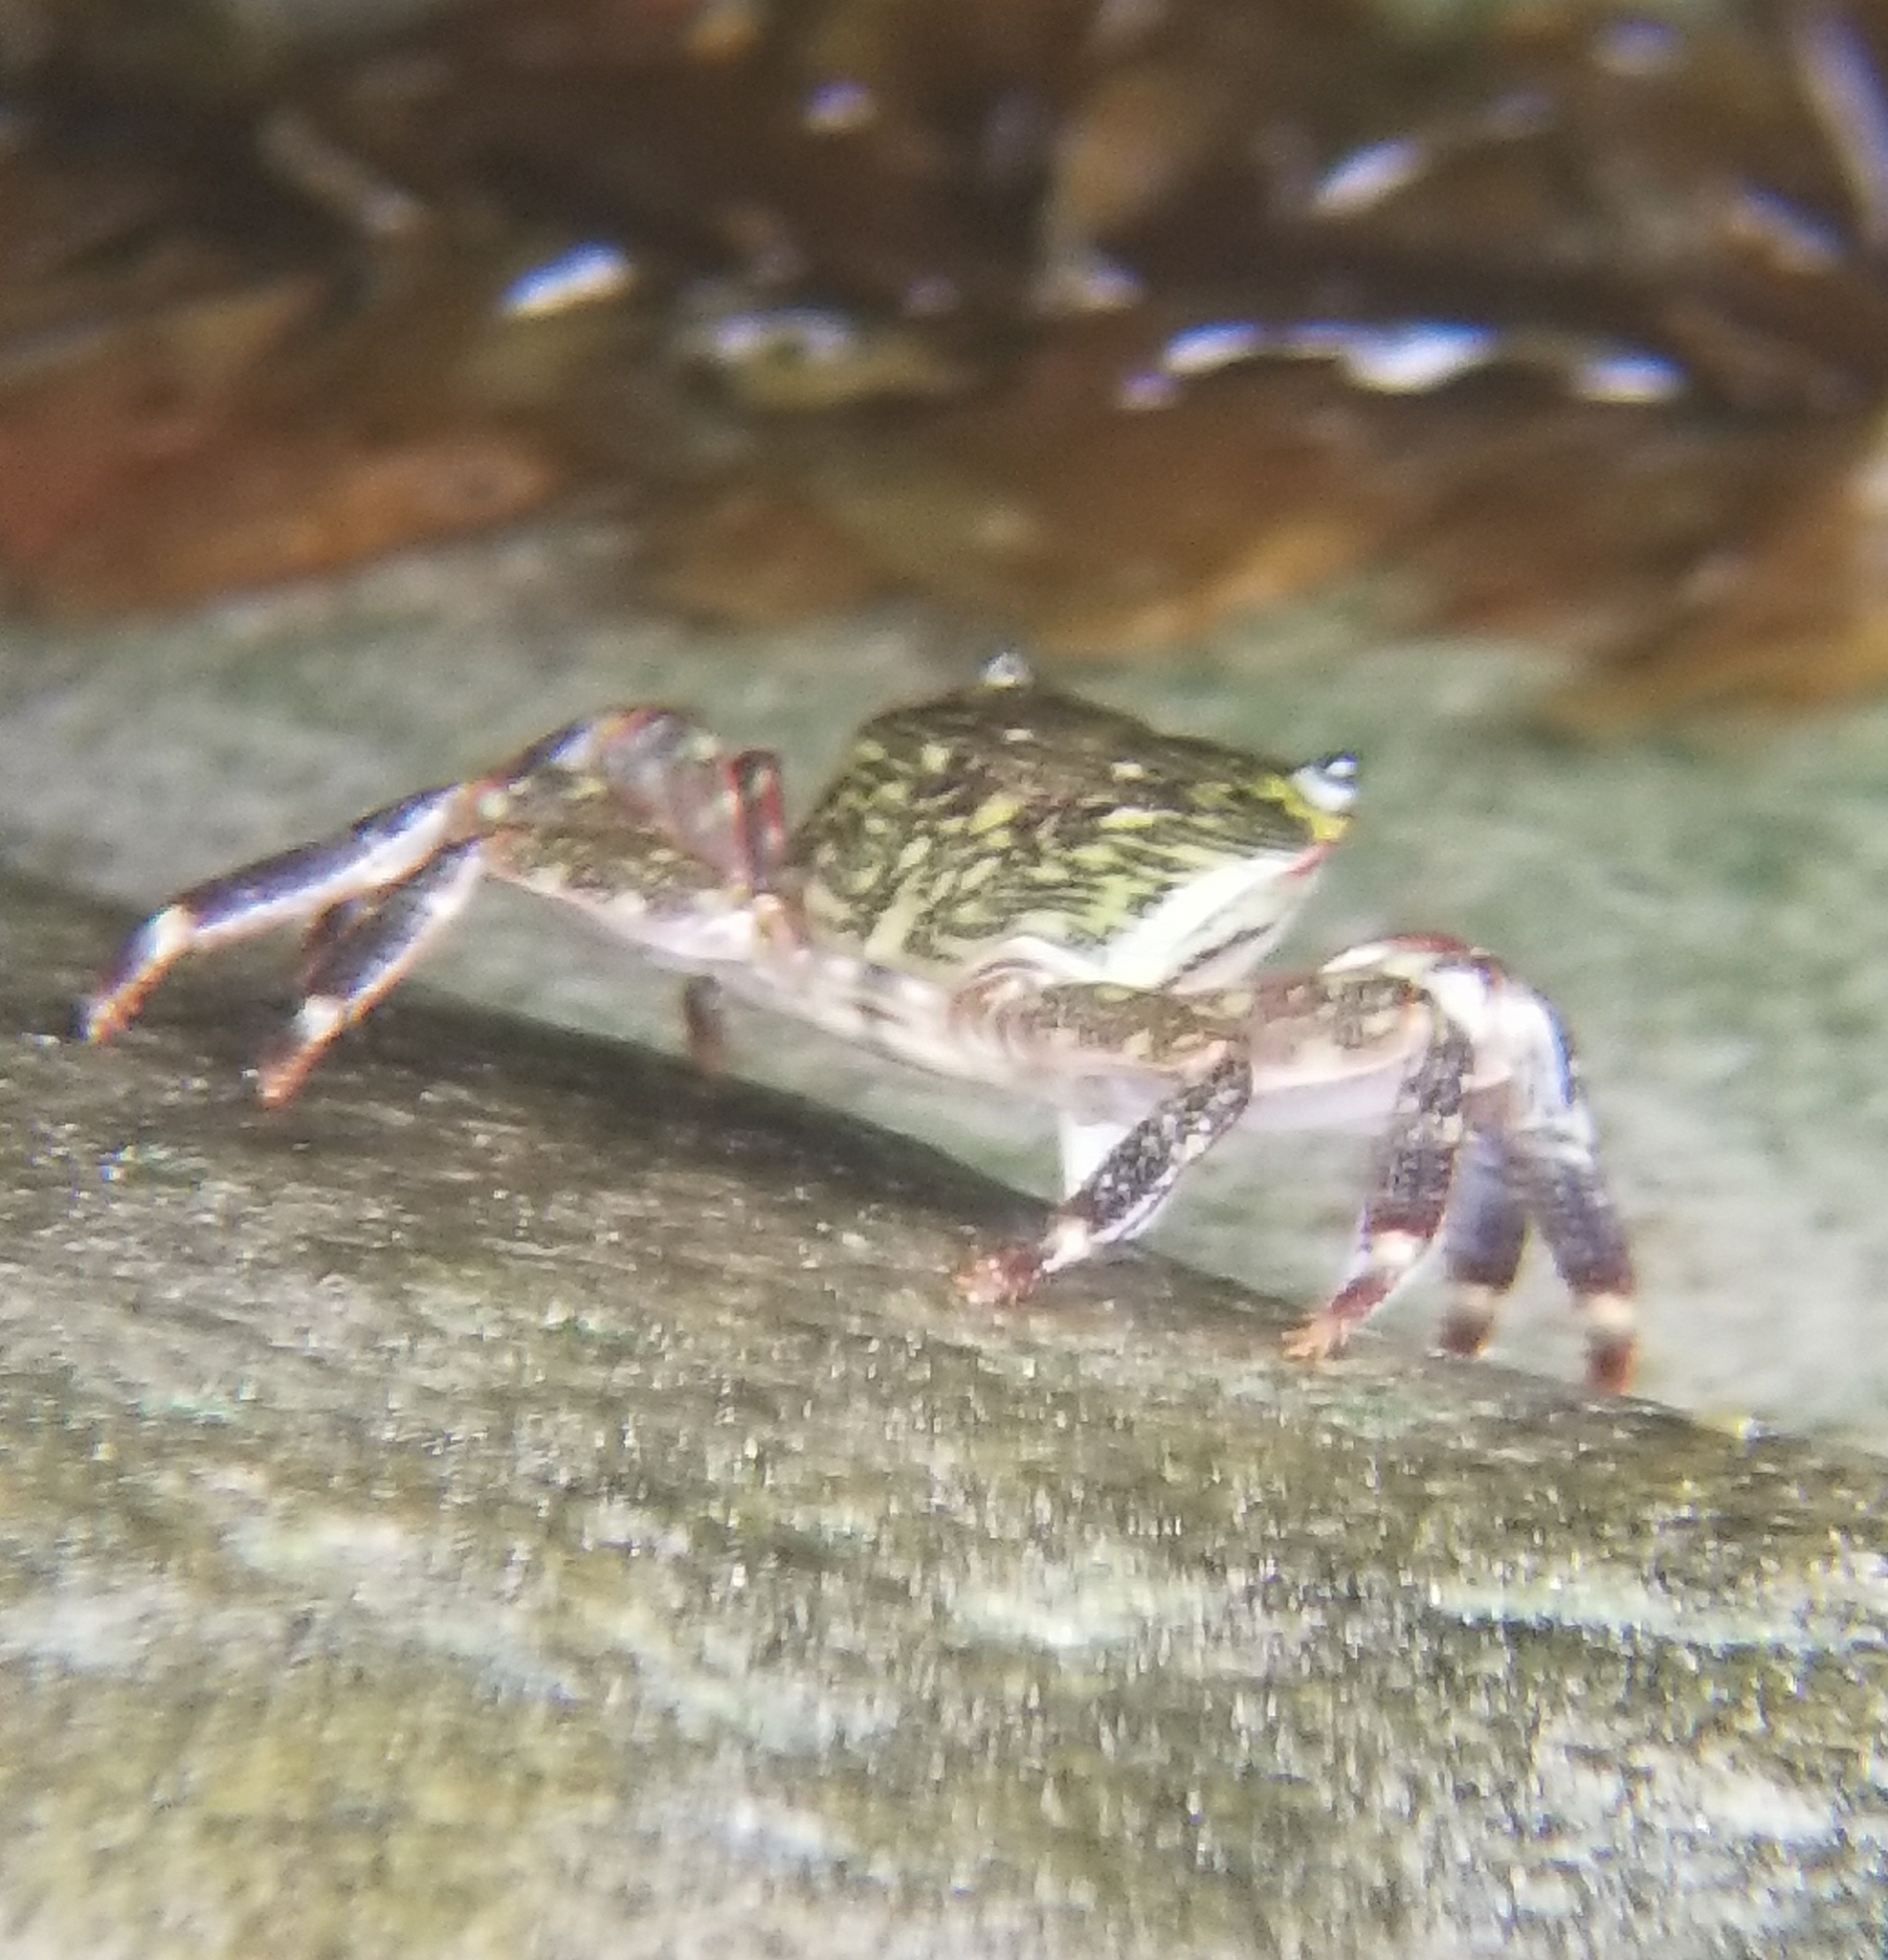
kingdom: Animalia
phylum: Arthropoda
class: Malacostraca
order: Decapoda
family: Grapsidae
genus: Pachygrapsus
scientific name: Pachygrapsus crassipes
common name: Striped shore crab
